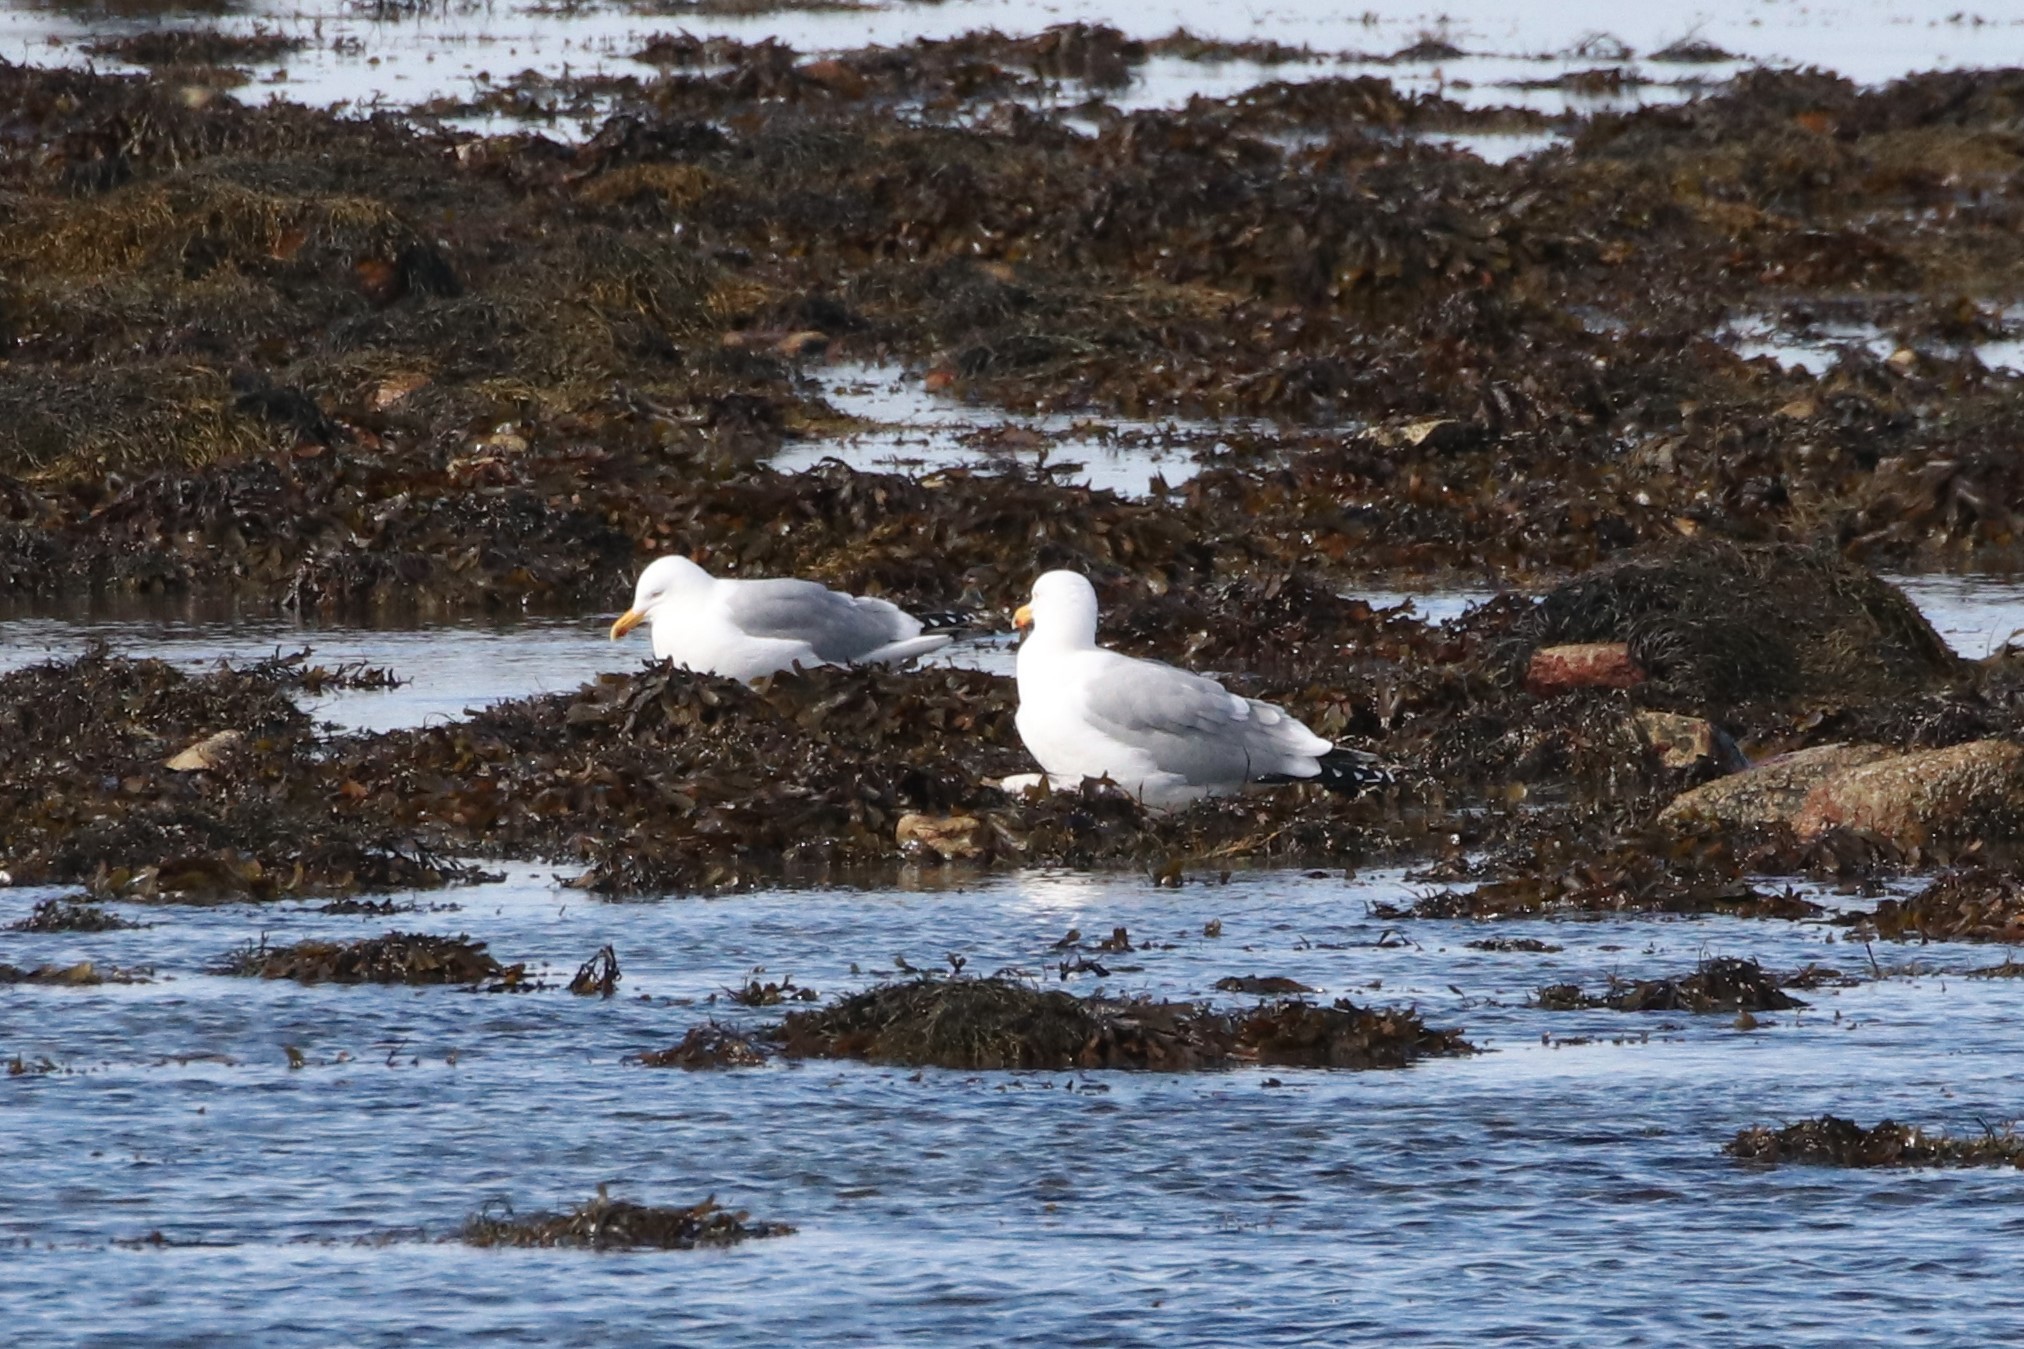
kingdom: Animalia
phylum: Chordata
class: Aves
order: Charadriiformes
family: Laridae
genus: Larus
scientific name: Larus argentatus
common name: Herring gull
